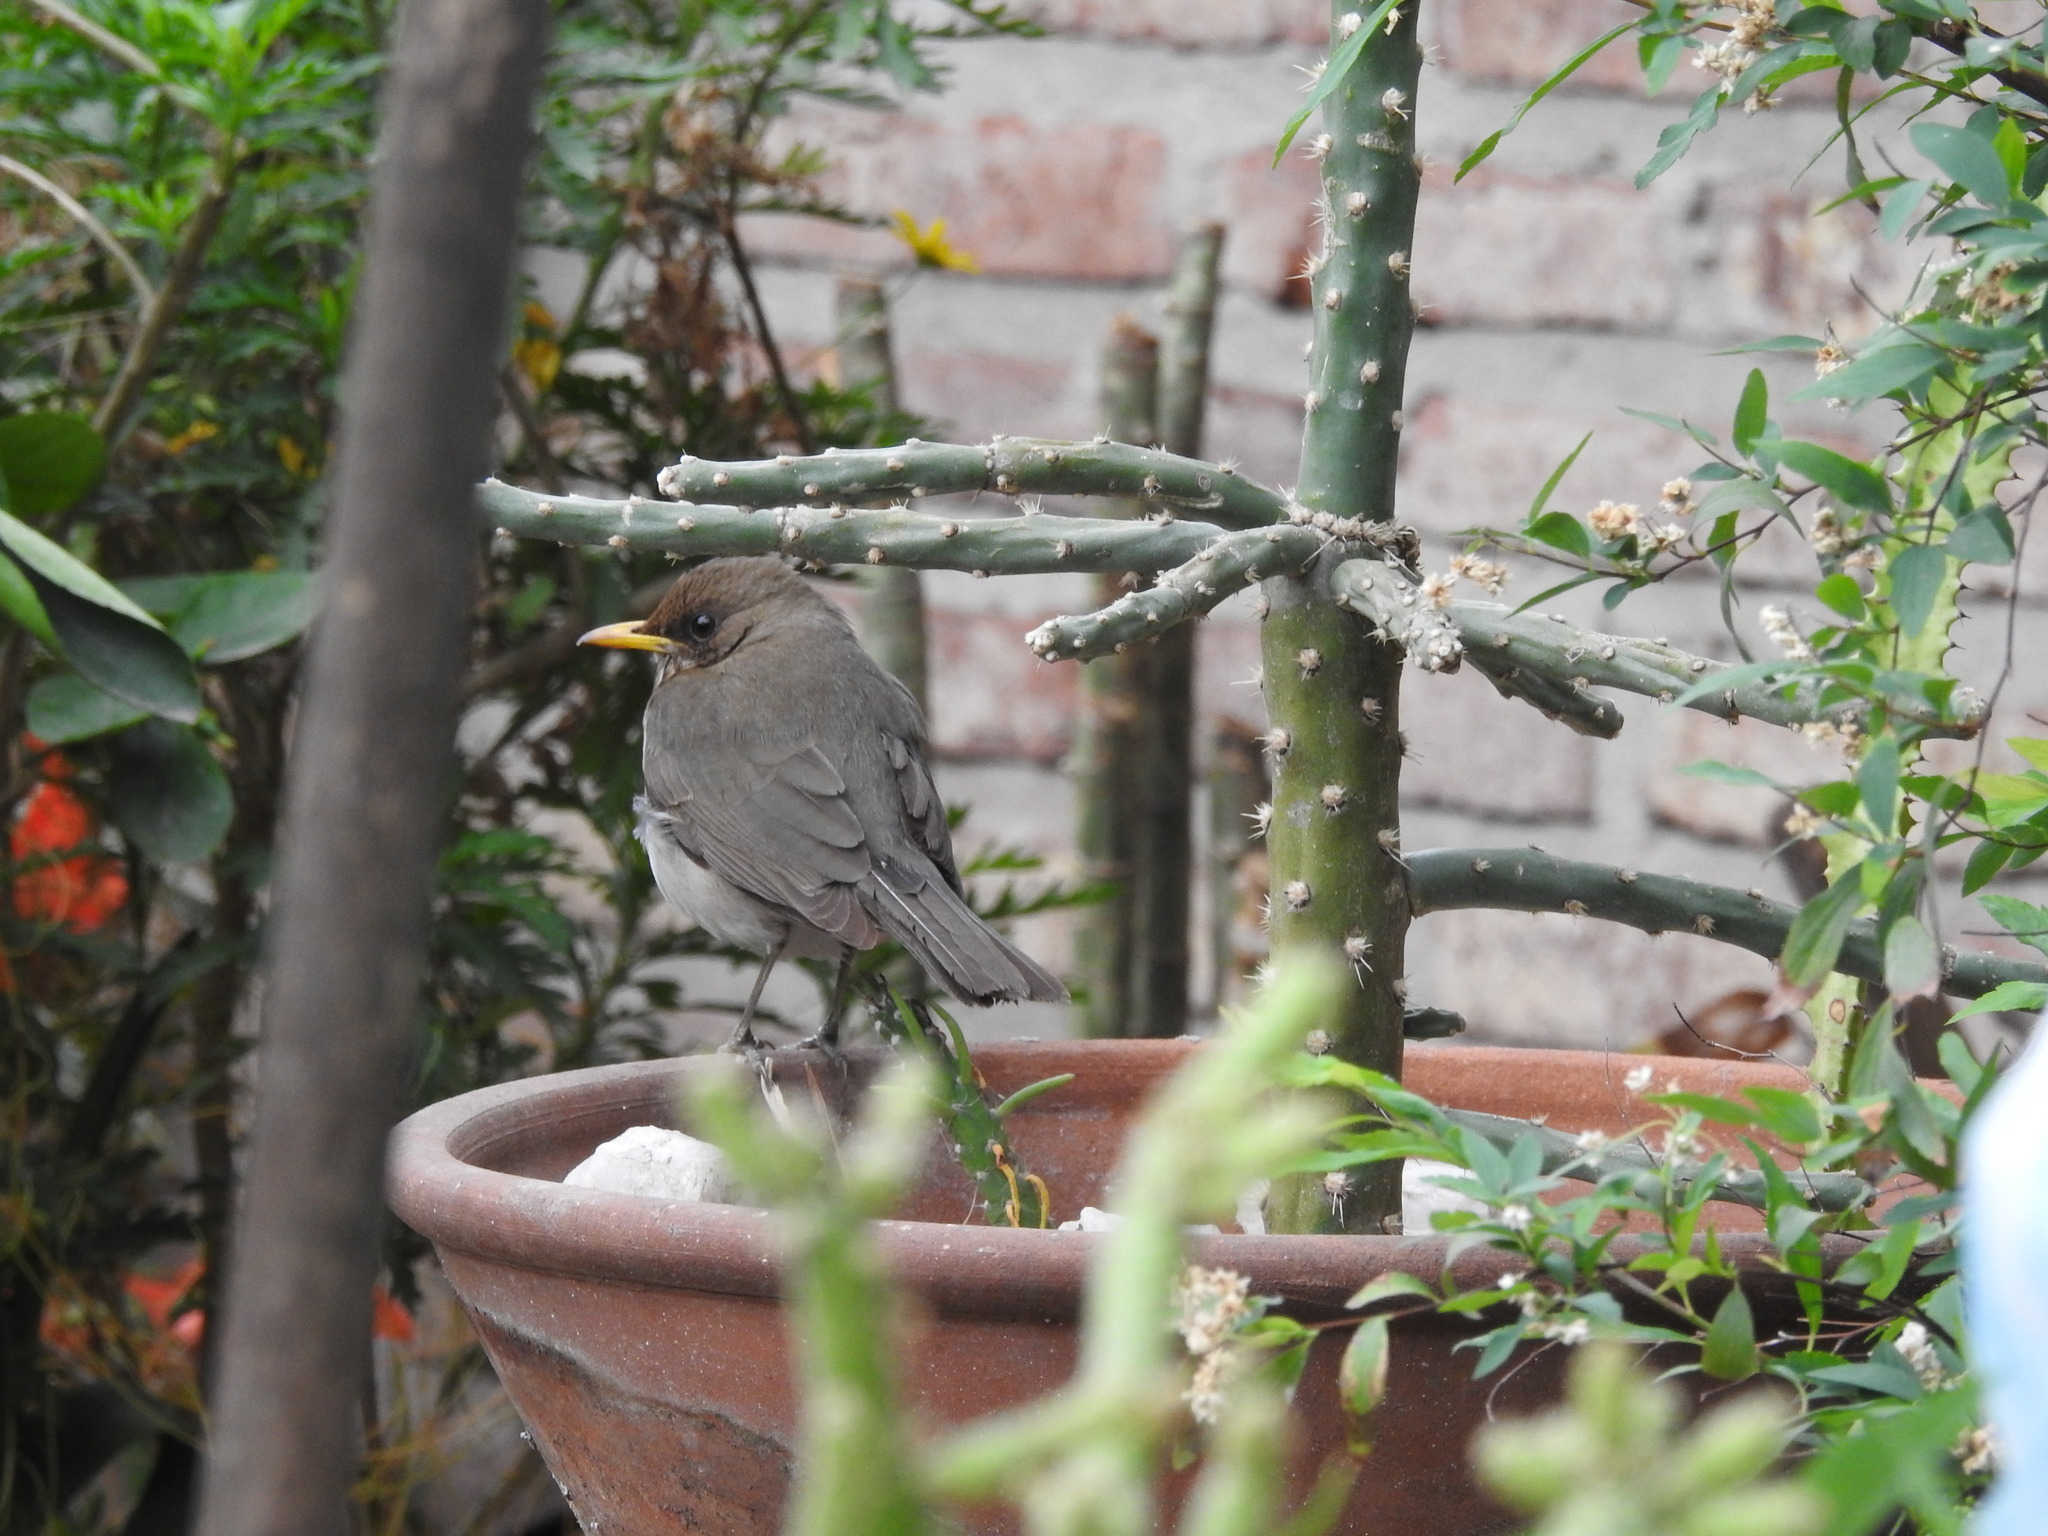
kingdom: Animalia
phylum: Chordata
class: Aves
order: Passeriformes
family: Turdidae
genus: Turdus
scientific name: Turdus amaurochalinus
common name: Creamy-bellied thrush
